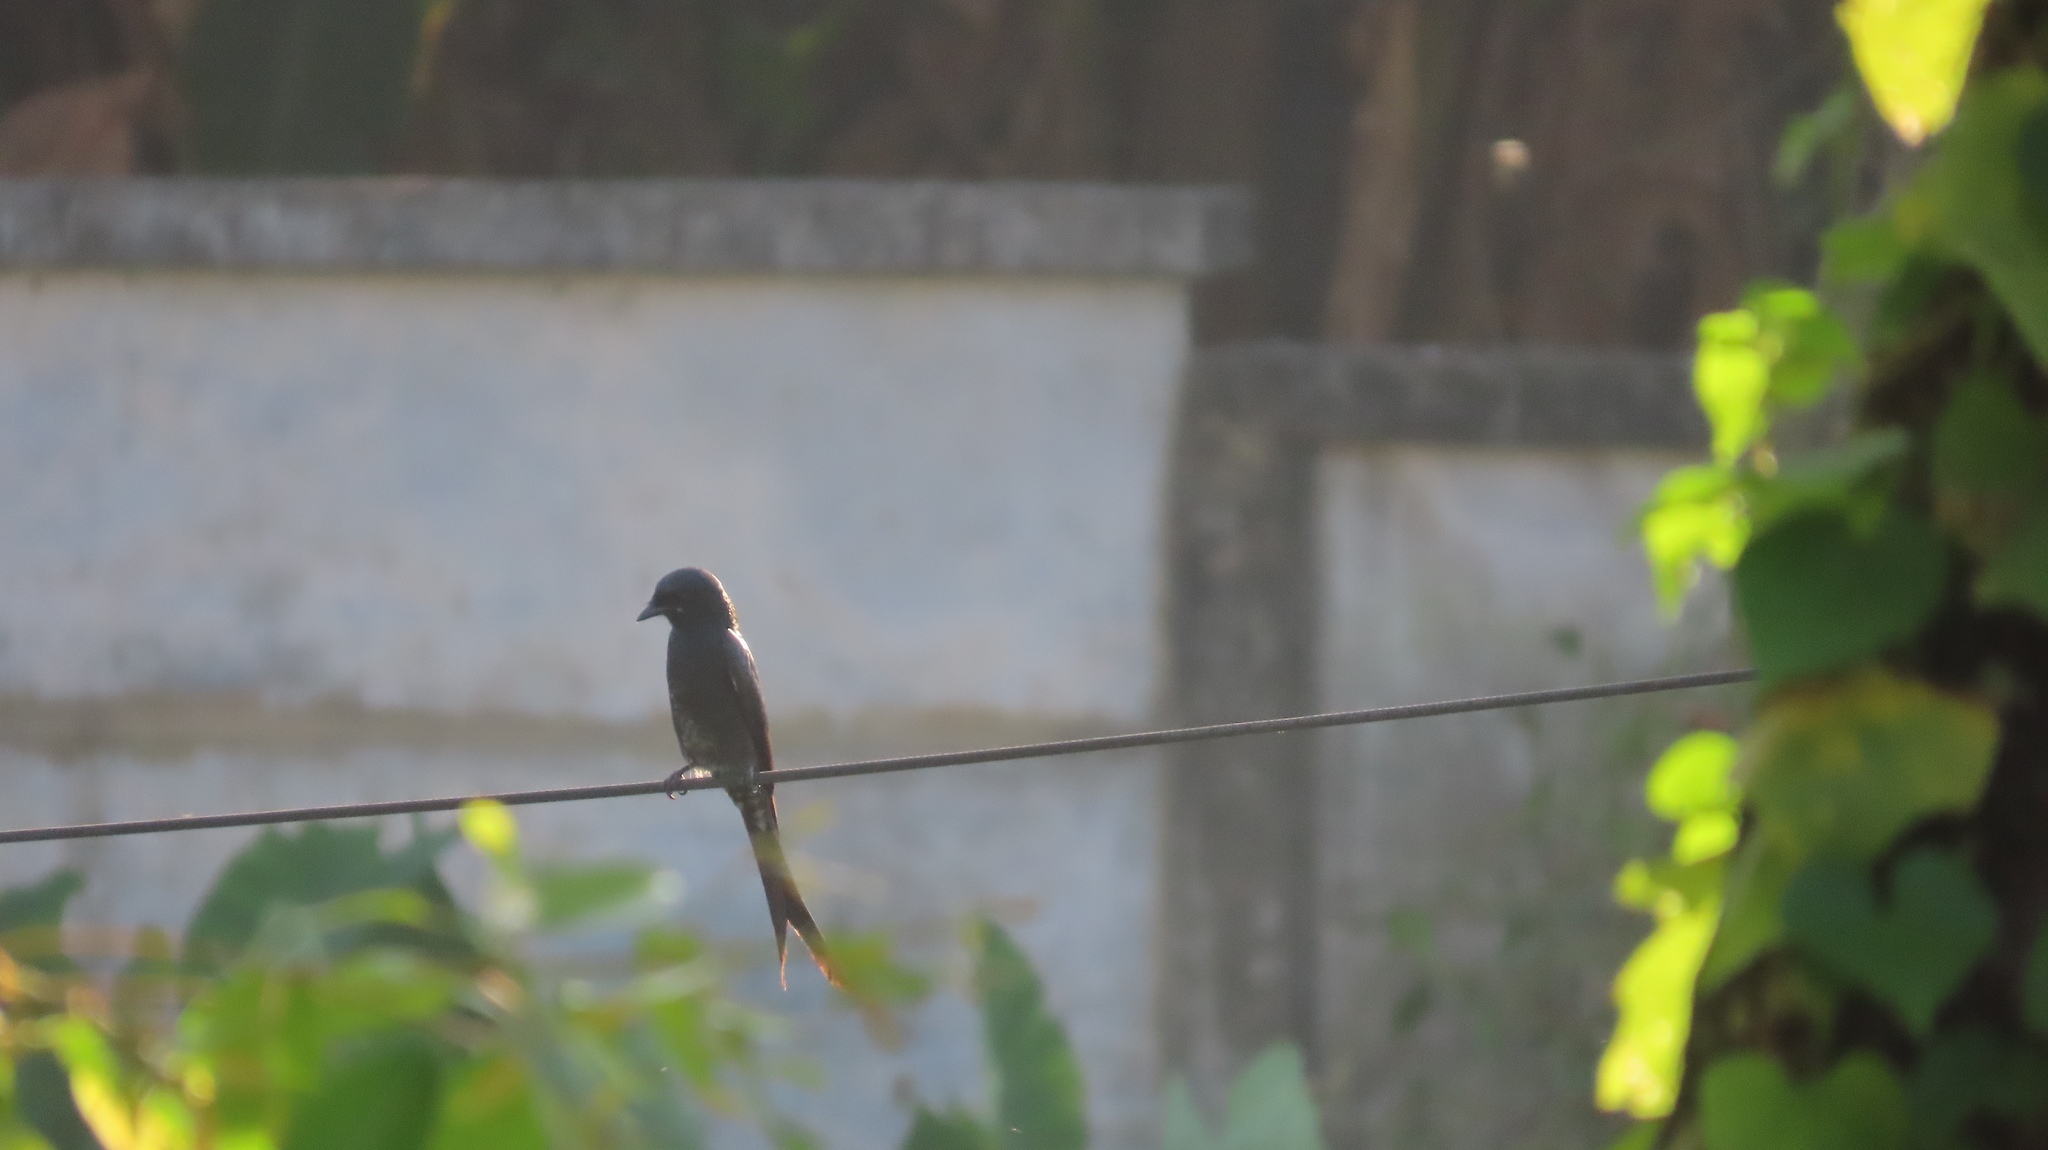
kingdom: Animalia
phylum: Chordata
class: Aves
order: Passeriformes
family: Dicruridae
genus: Dicrurus
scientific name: Dicrurus macrocercus
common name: Black drongo
